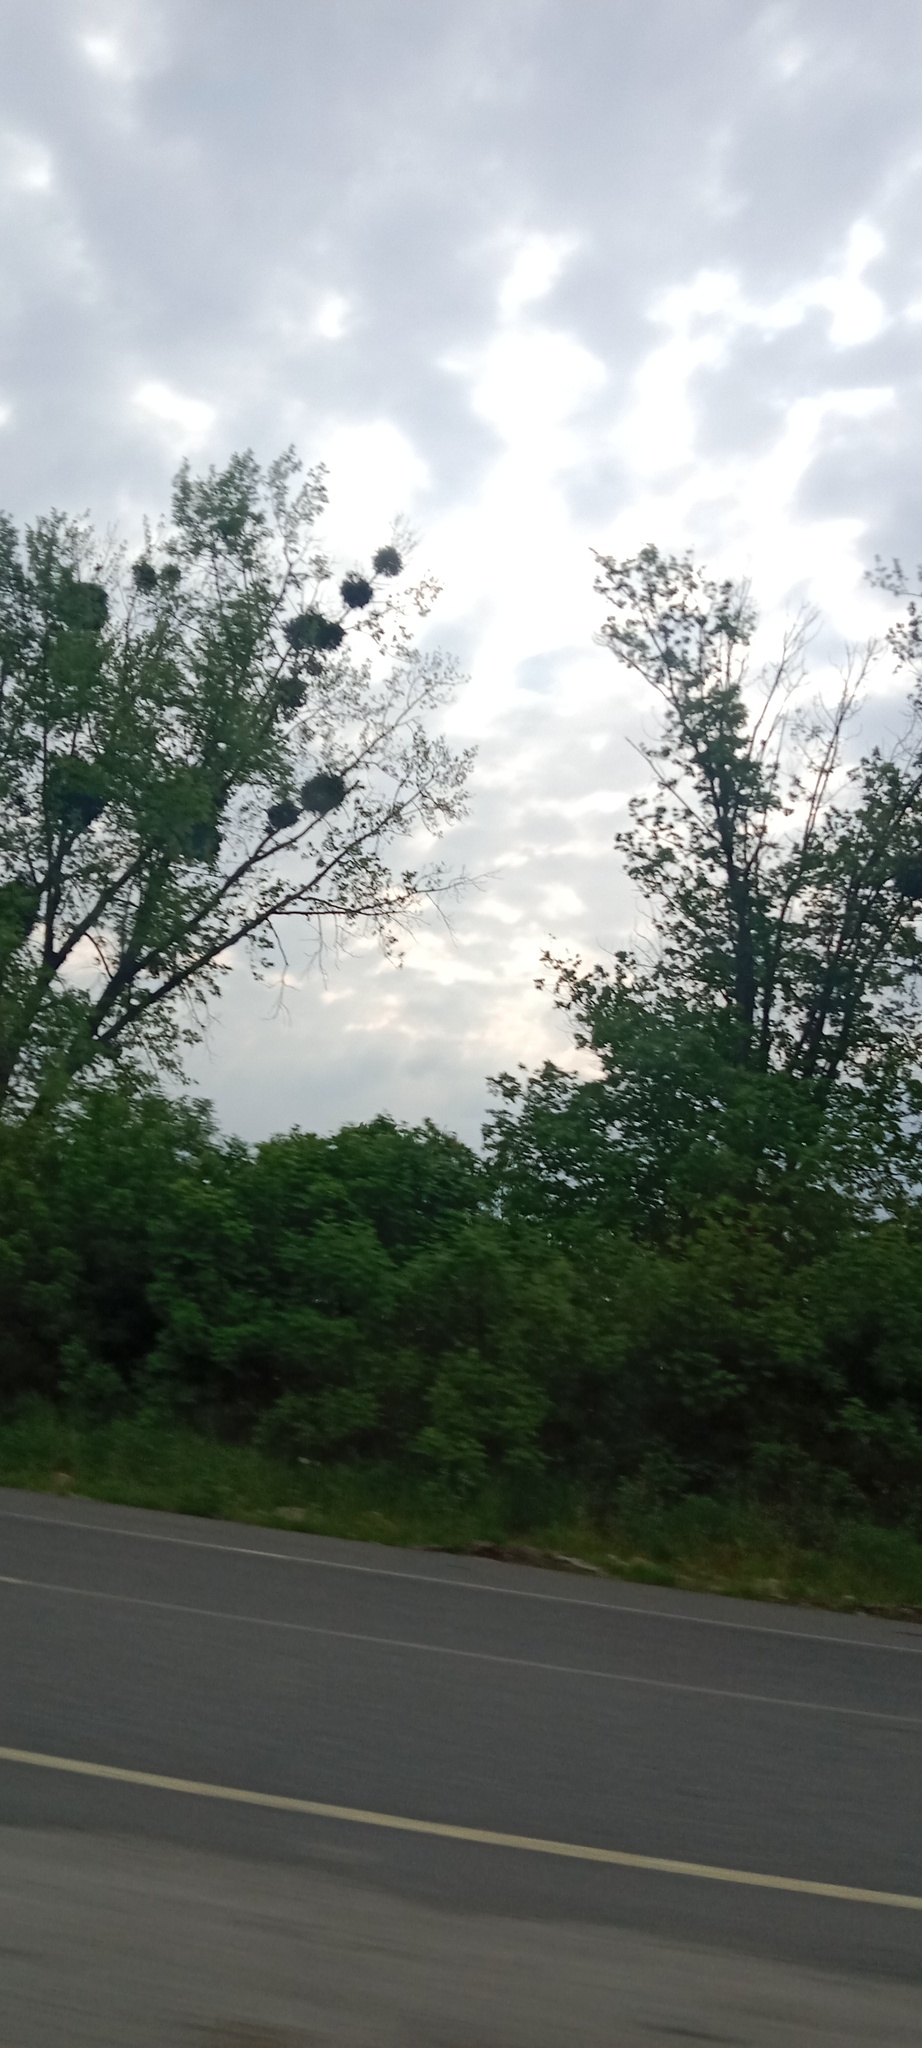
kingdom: Plantae
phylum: Tracheophyta
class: Magnoliopsida
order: Santalales
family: Viscaceae
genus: Viscum
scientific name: Viscum album
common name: Mistletoe
